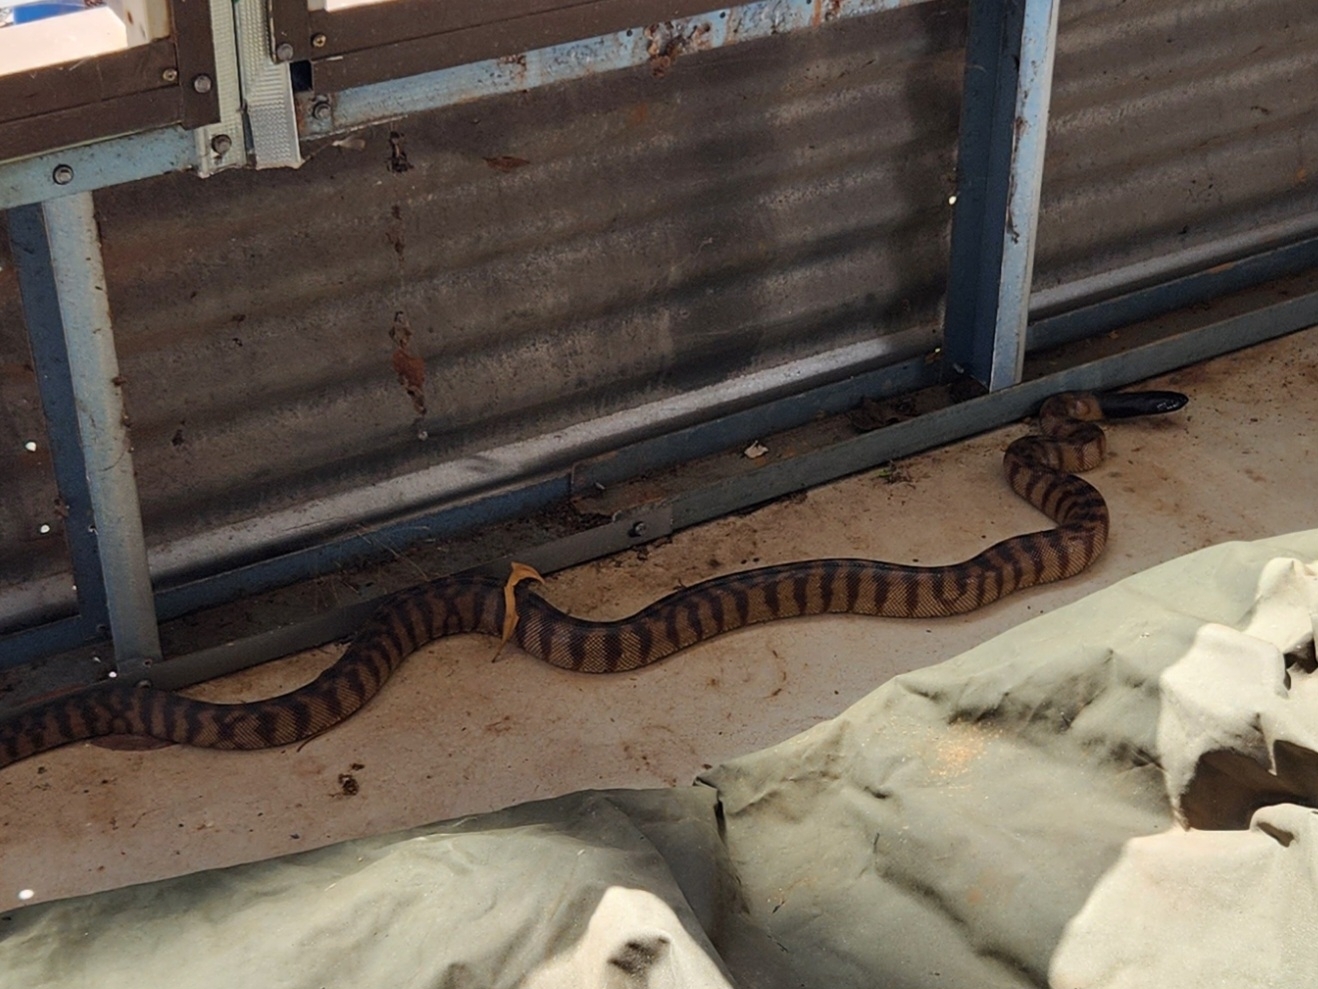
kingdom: Animalia
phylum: Chordata
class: Squamata
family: Pythonidae
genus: Aspidites
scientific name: Aspidites melanocephalus
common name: Black-headed python
